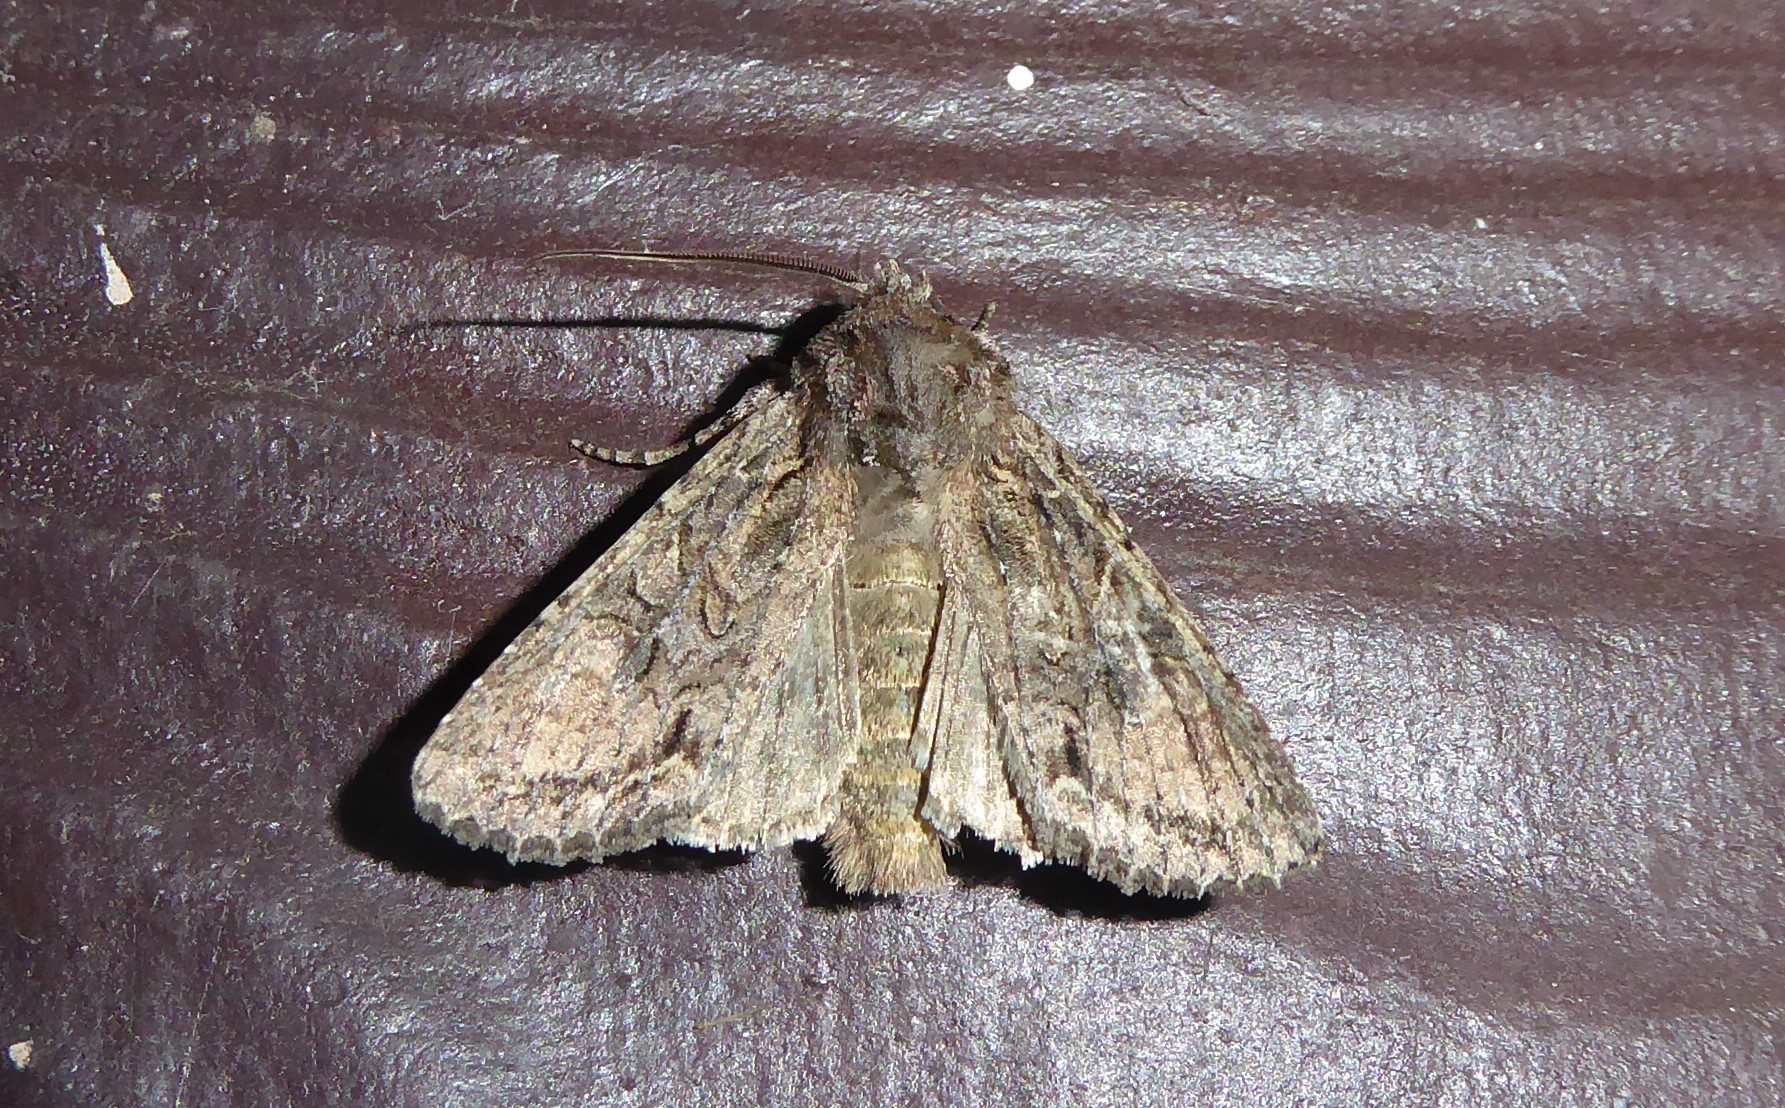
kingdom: Animalia
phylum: Arthropoda
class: Insecta
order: Lepidoptera
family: Noctuidae
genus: Ichneutica
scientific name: Ichneutica mutans
